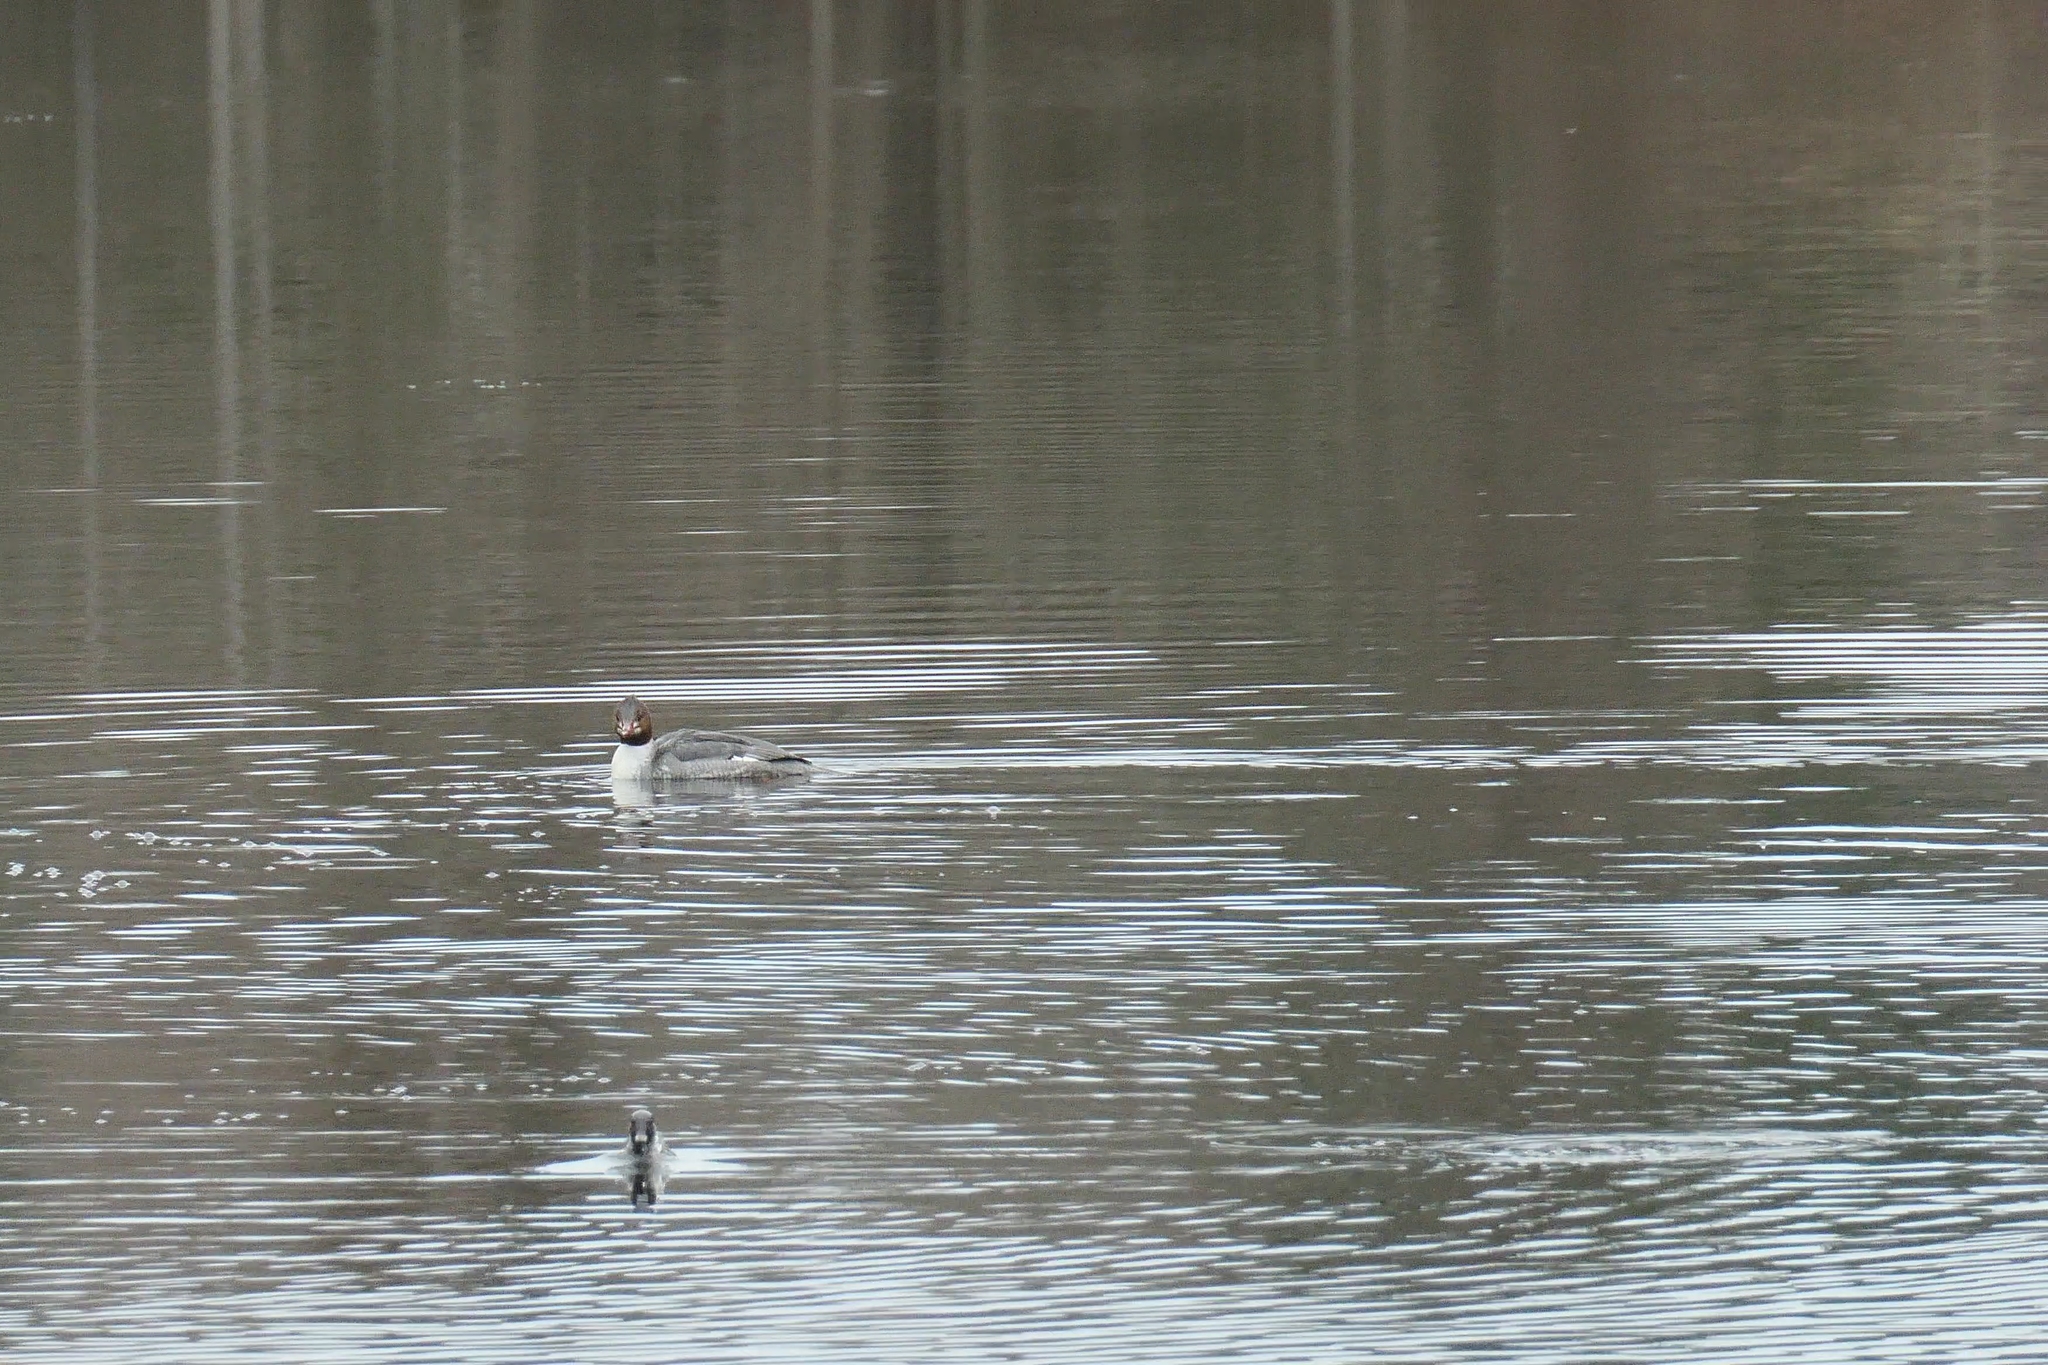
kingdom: Animalia
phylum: Chordata
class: Aves
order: Anseriformes
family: Anatidae
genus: Mergus
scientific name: Mergus merganser
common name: Common merganser
